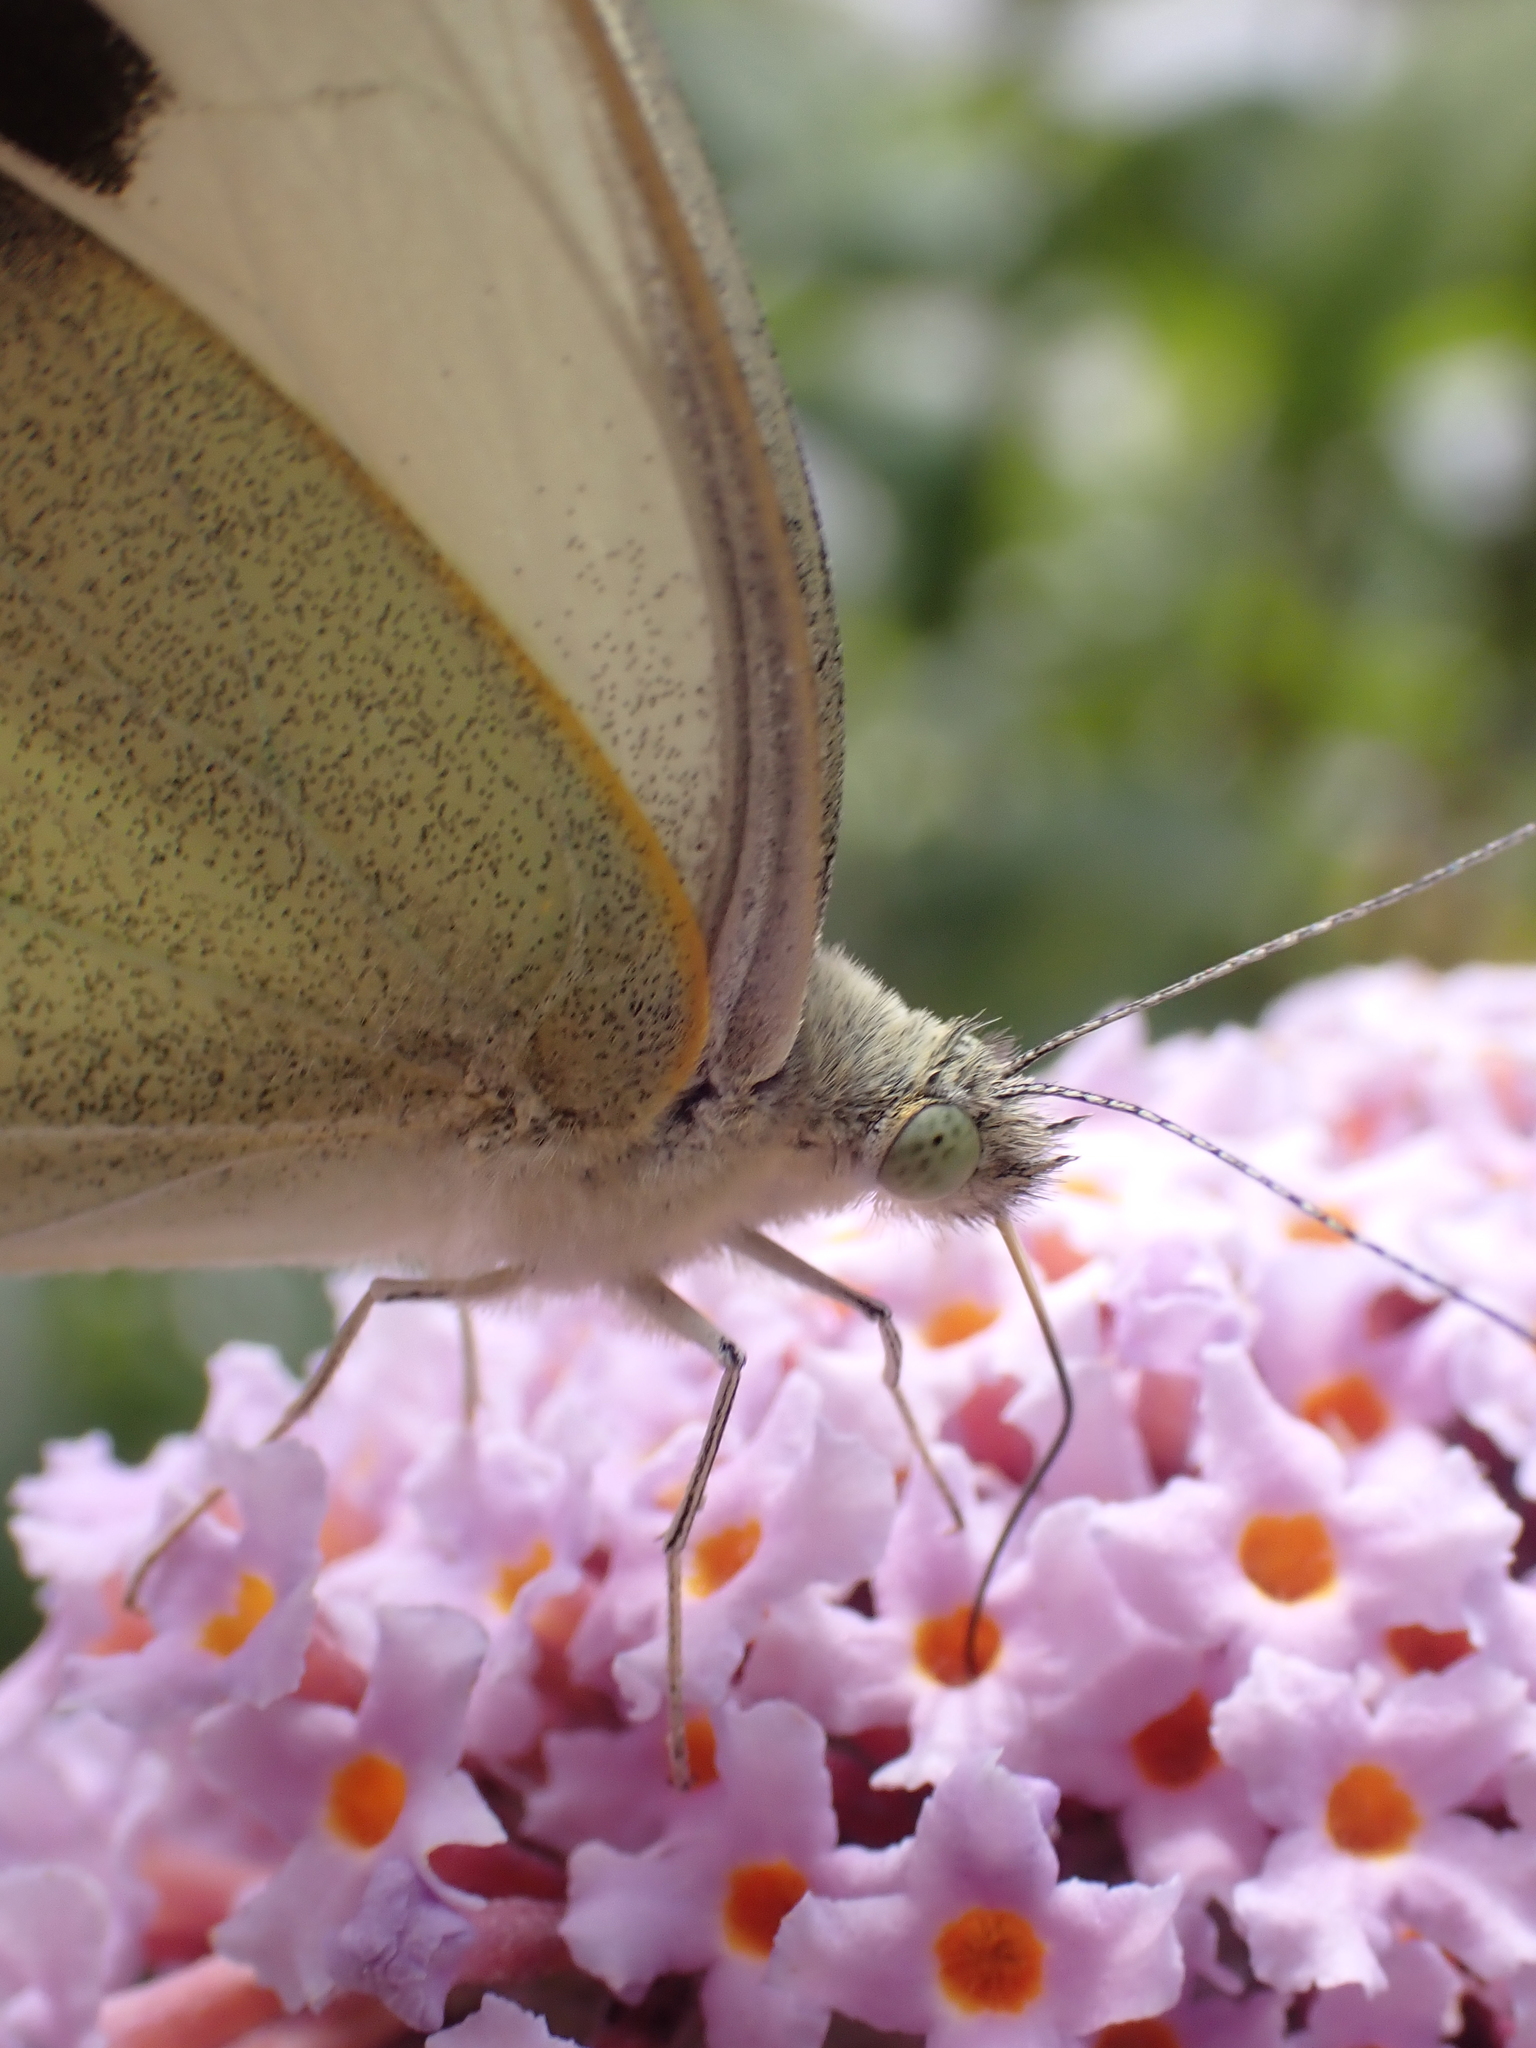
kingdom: Animalia
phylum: Arthropoda
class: Insecta
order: Lepidoptera
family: Pieridae
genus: Pieris
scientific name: Pieris brassicae
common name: Large white
